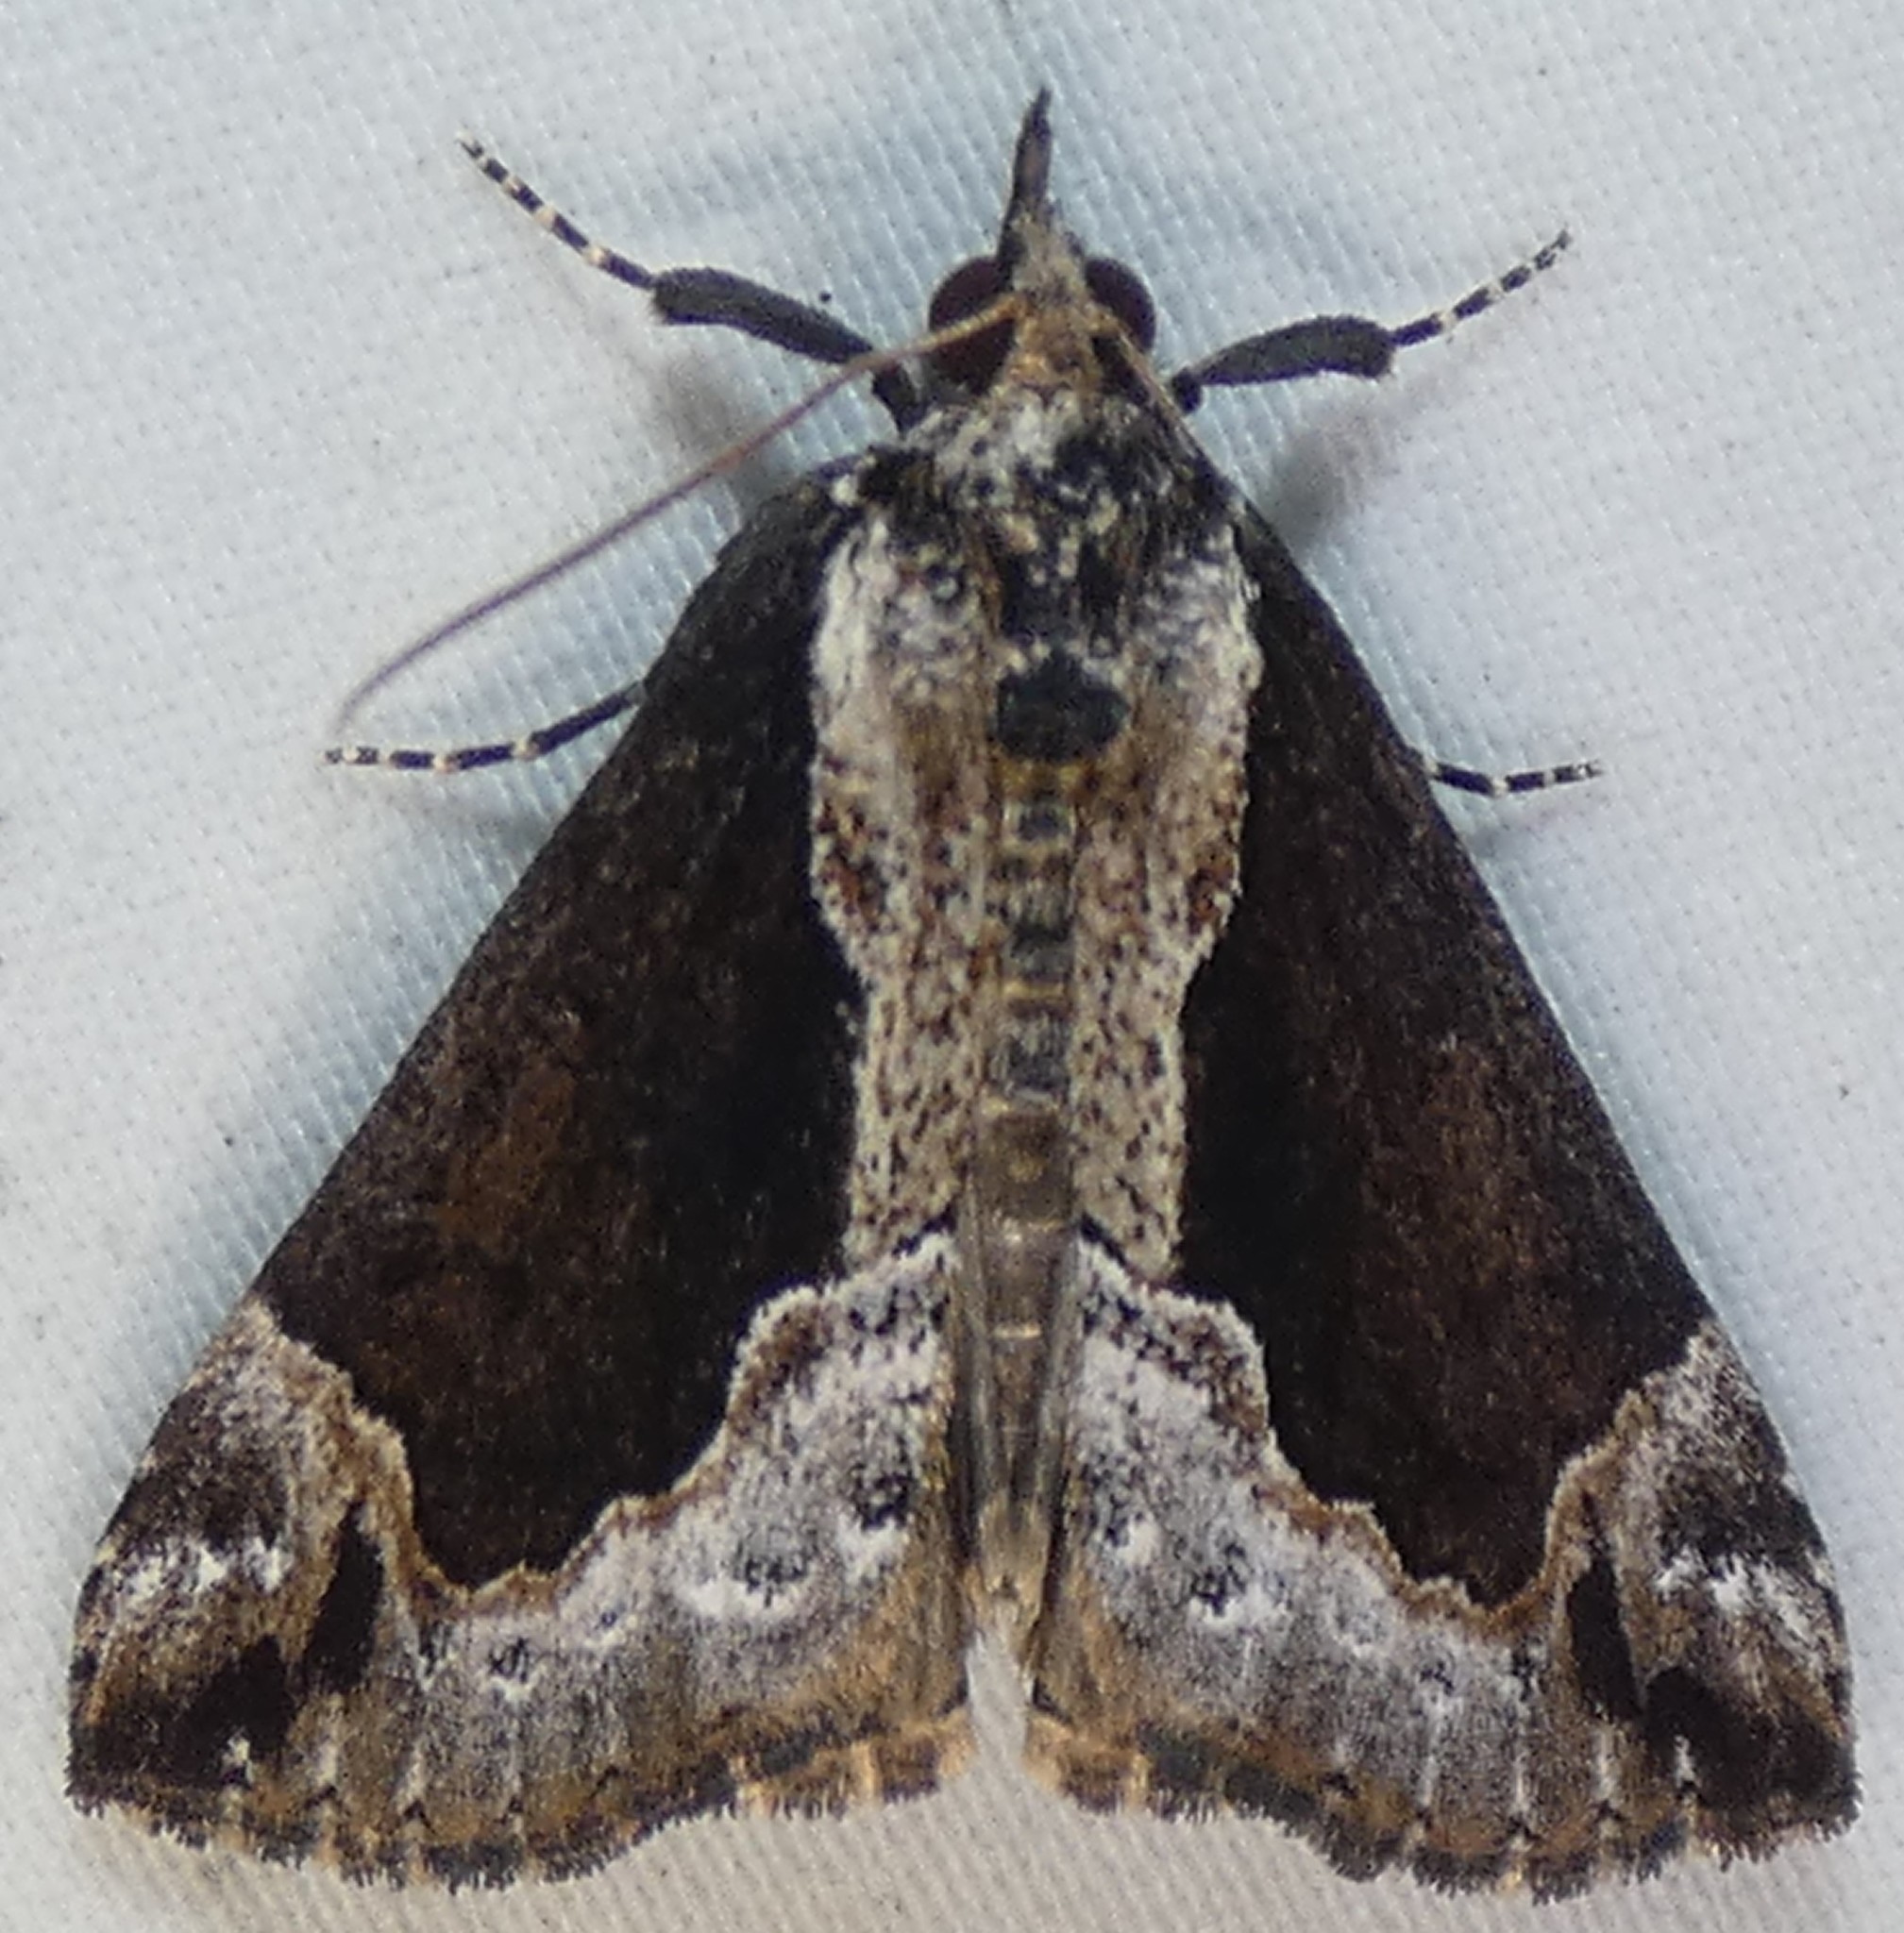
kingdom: Animalia
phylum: Arthropoda
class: Insecta
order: Lepidoptera
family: Erebidae
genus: Hypena
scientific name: Hypena baltimoralis
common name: Baltimore snout
